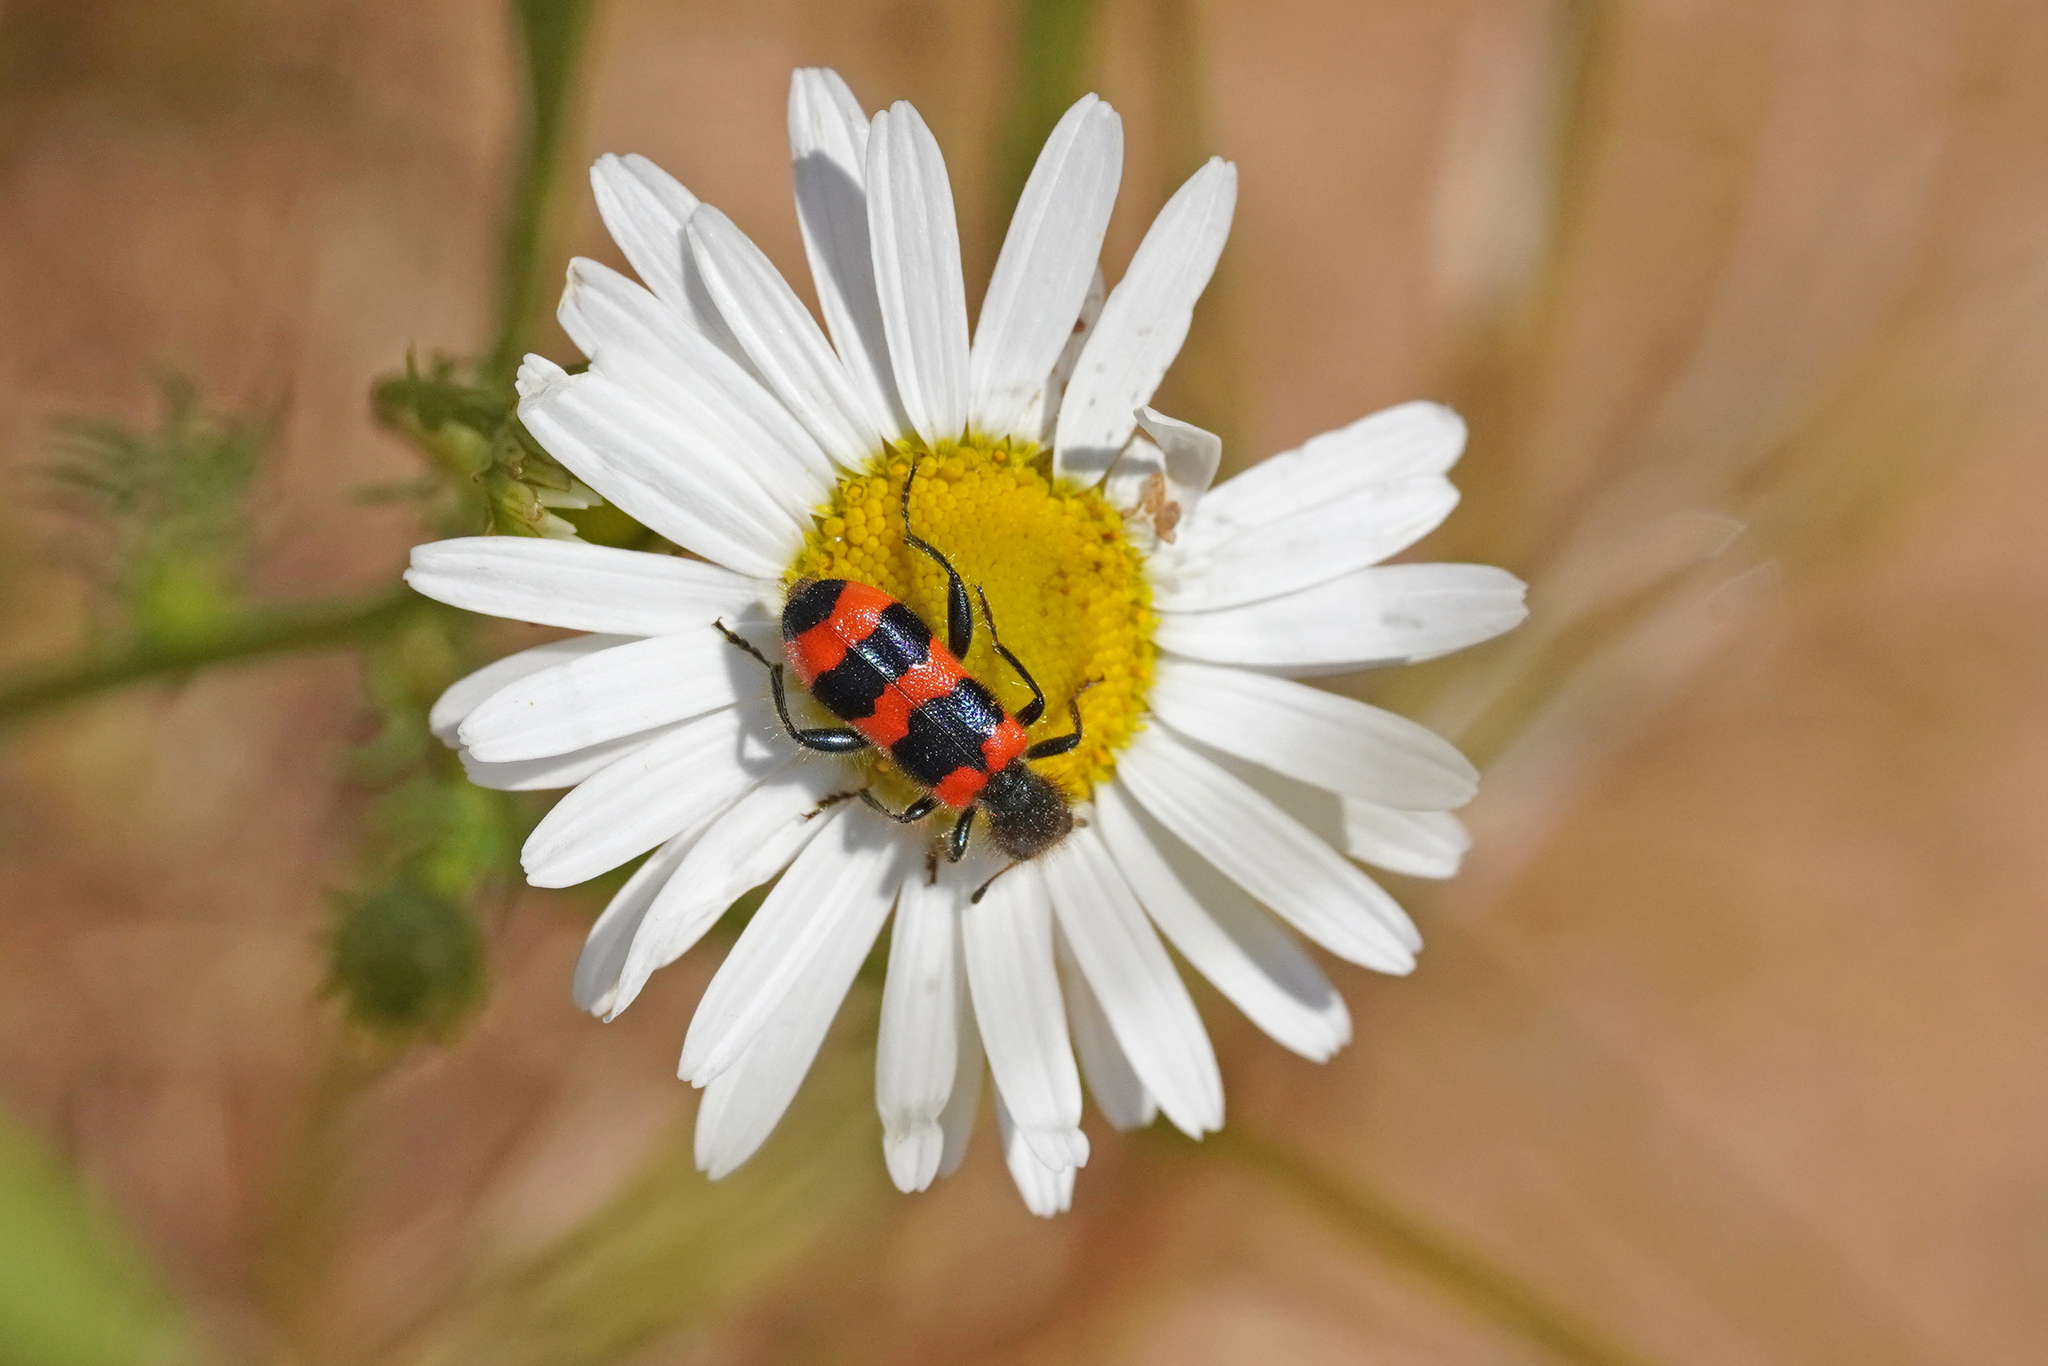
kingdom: Animalia
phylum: Arthropoda
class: Insecta
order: Coleoptera
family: Cleridae
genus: Trichodes
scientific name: Trichodes apiarius
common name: Bee-eating beetle
